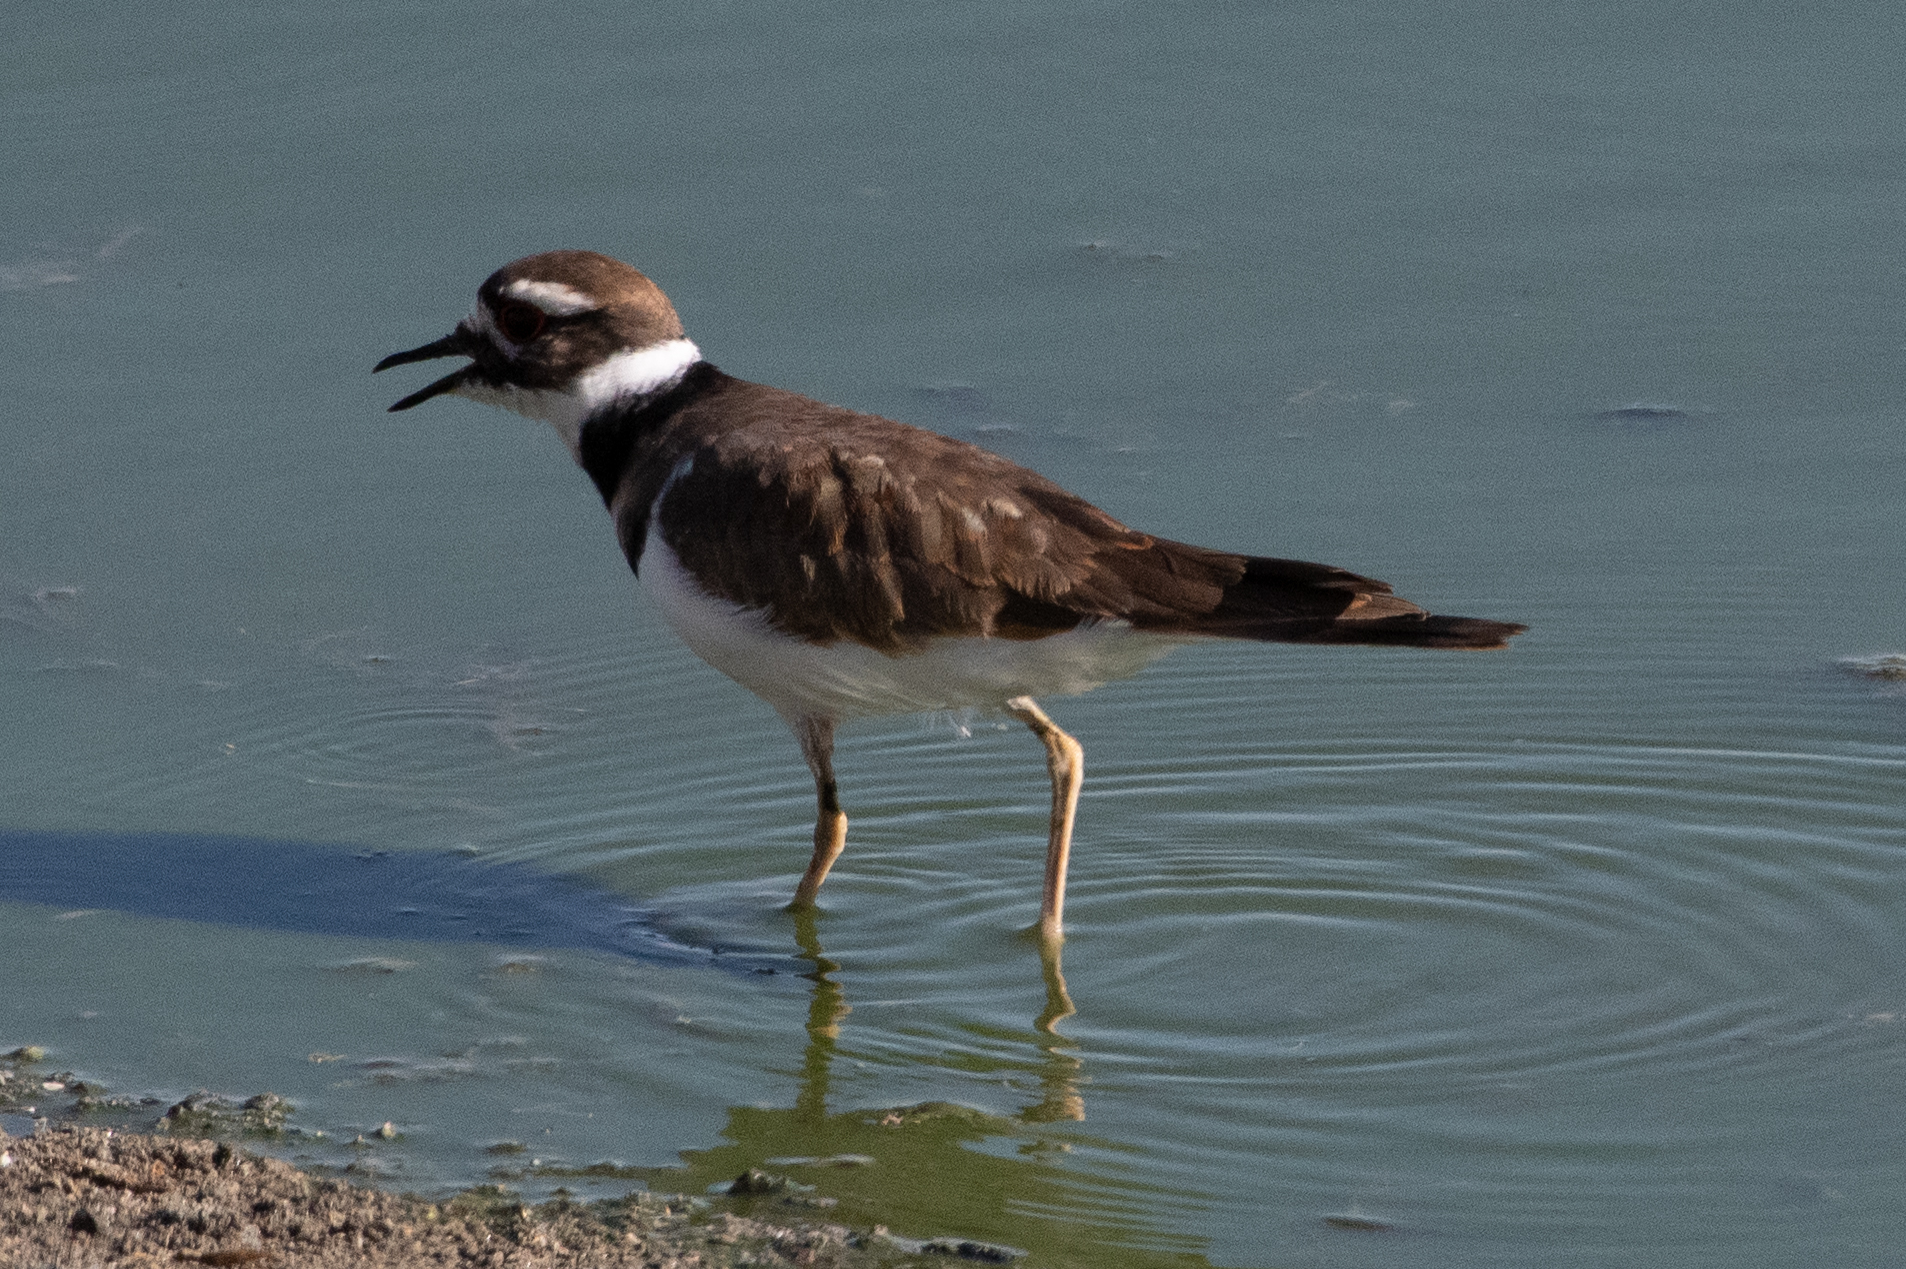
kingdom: Animalia
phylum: Chordata
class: Aves
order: Charadriiformes
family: Charadriidae
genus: Charadrius
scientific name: Charadrius vociferus
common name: Killdeer
